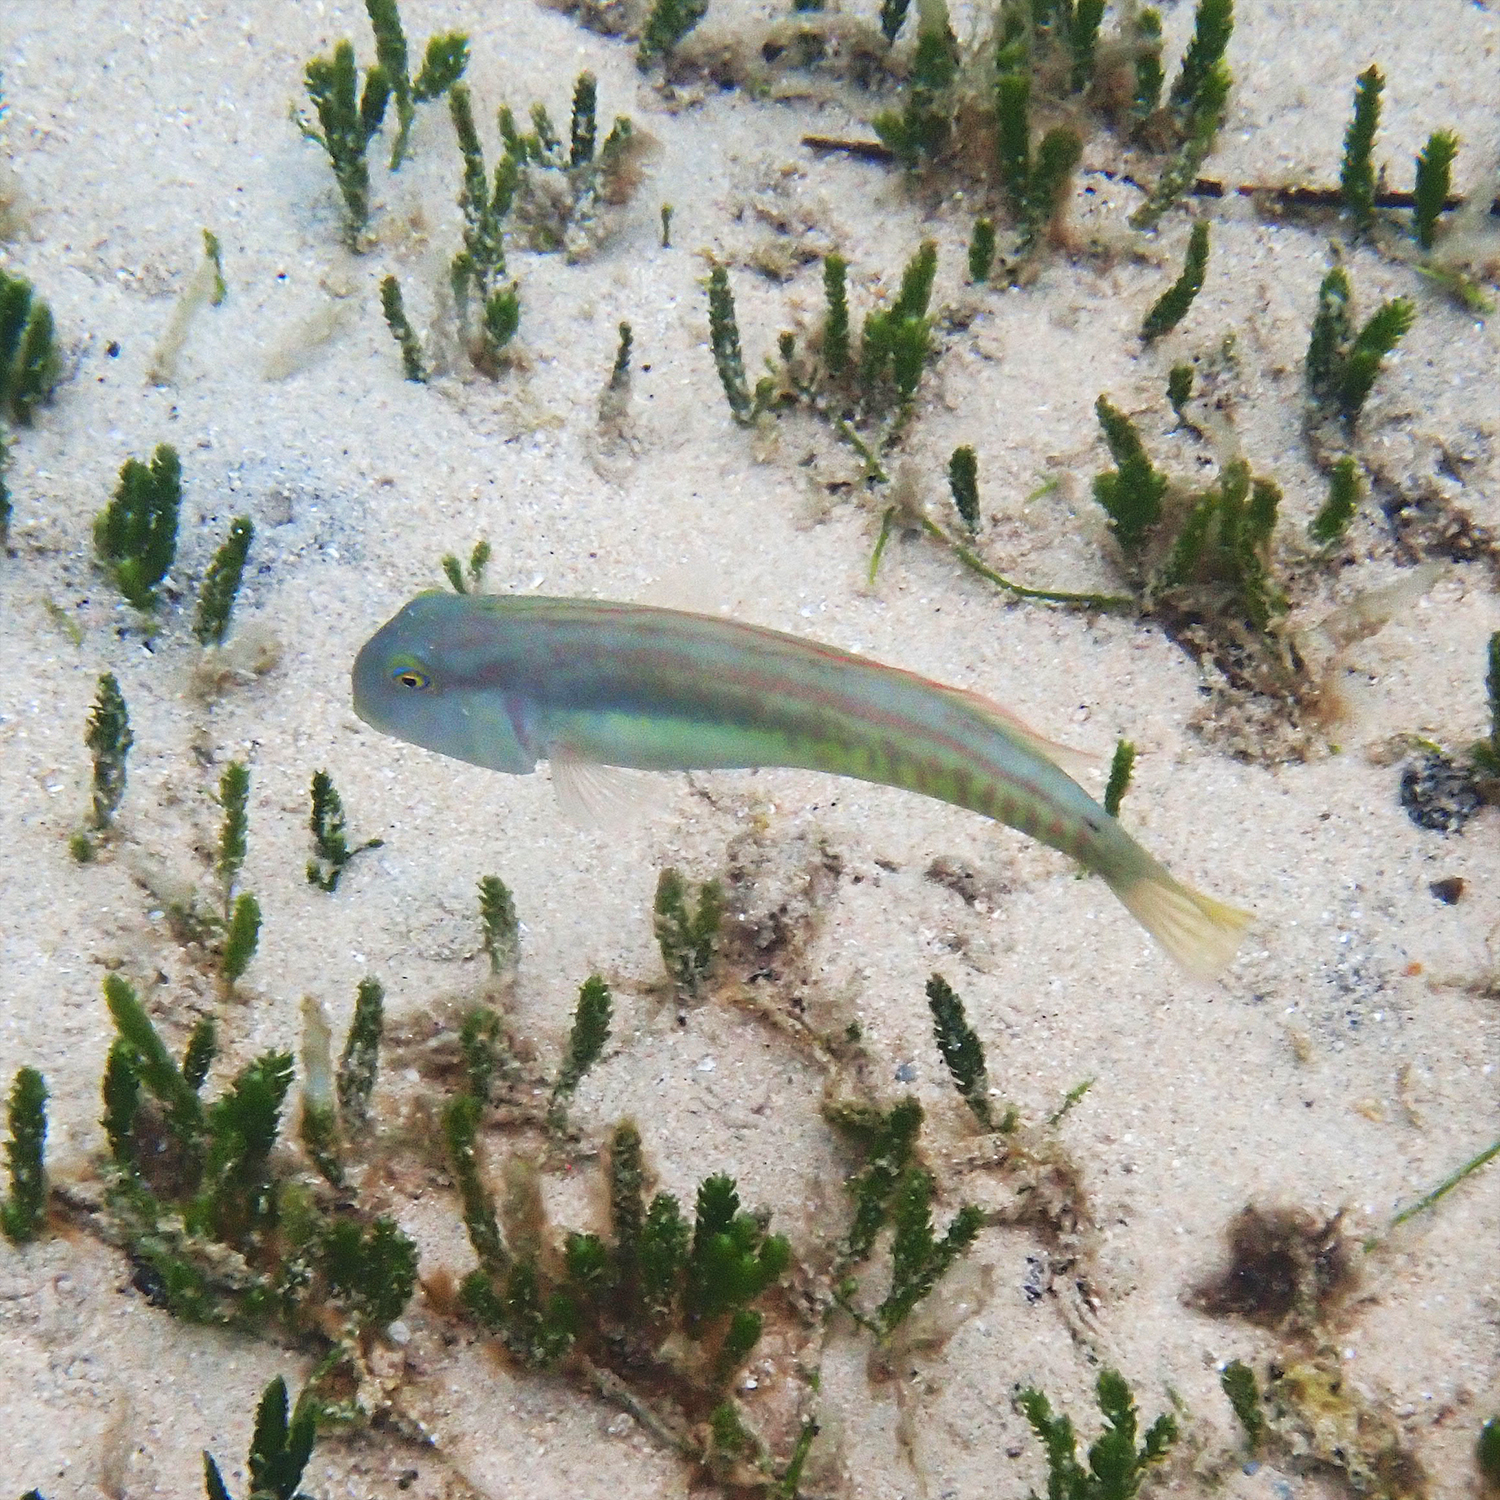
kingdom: Animalia
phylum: Chordata
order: Perciformes
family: Labridae
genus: Cymolutes
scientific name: Cymolutes praetextatus
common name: Knife razorfish
